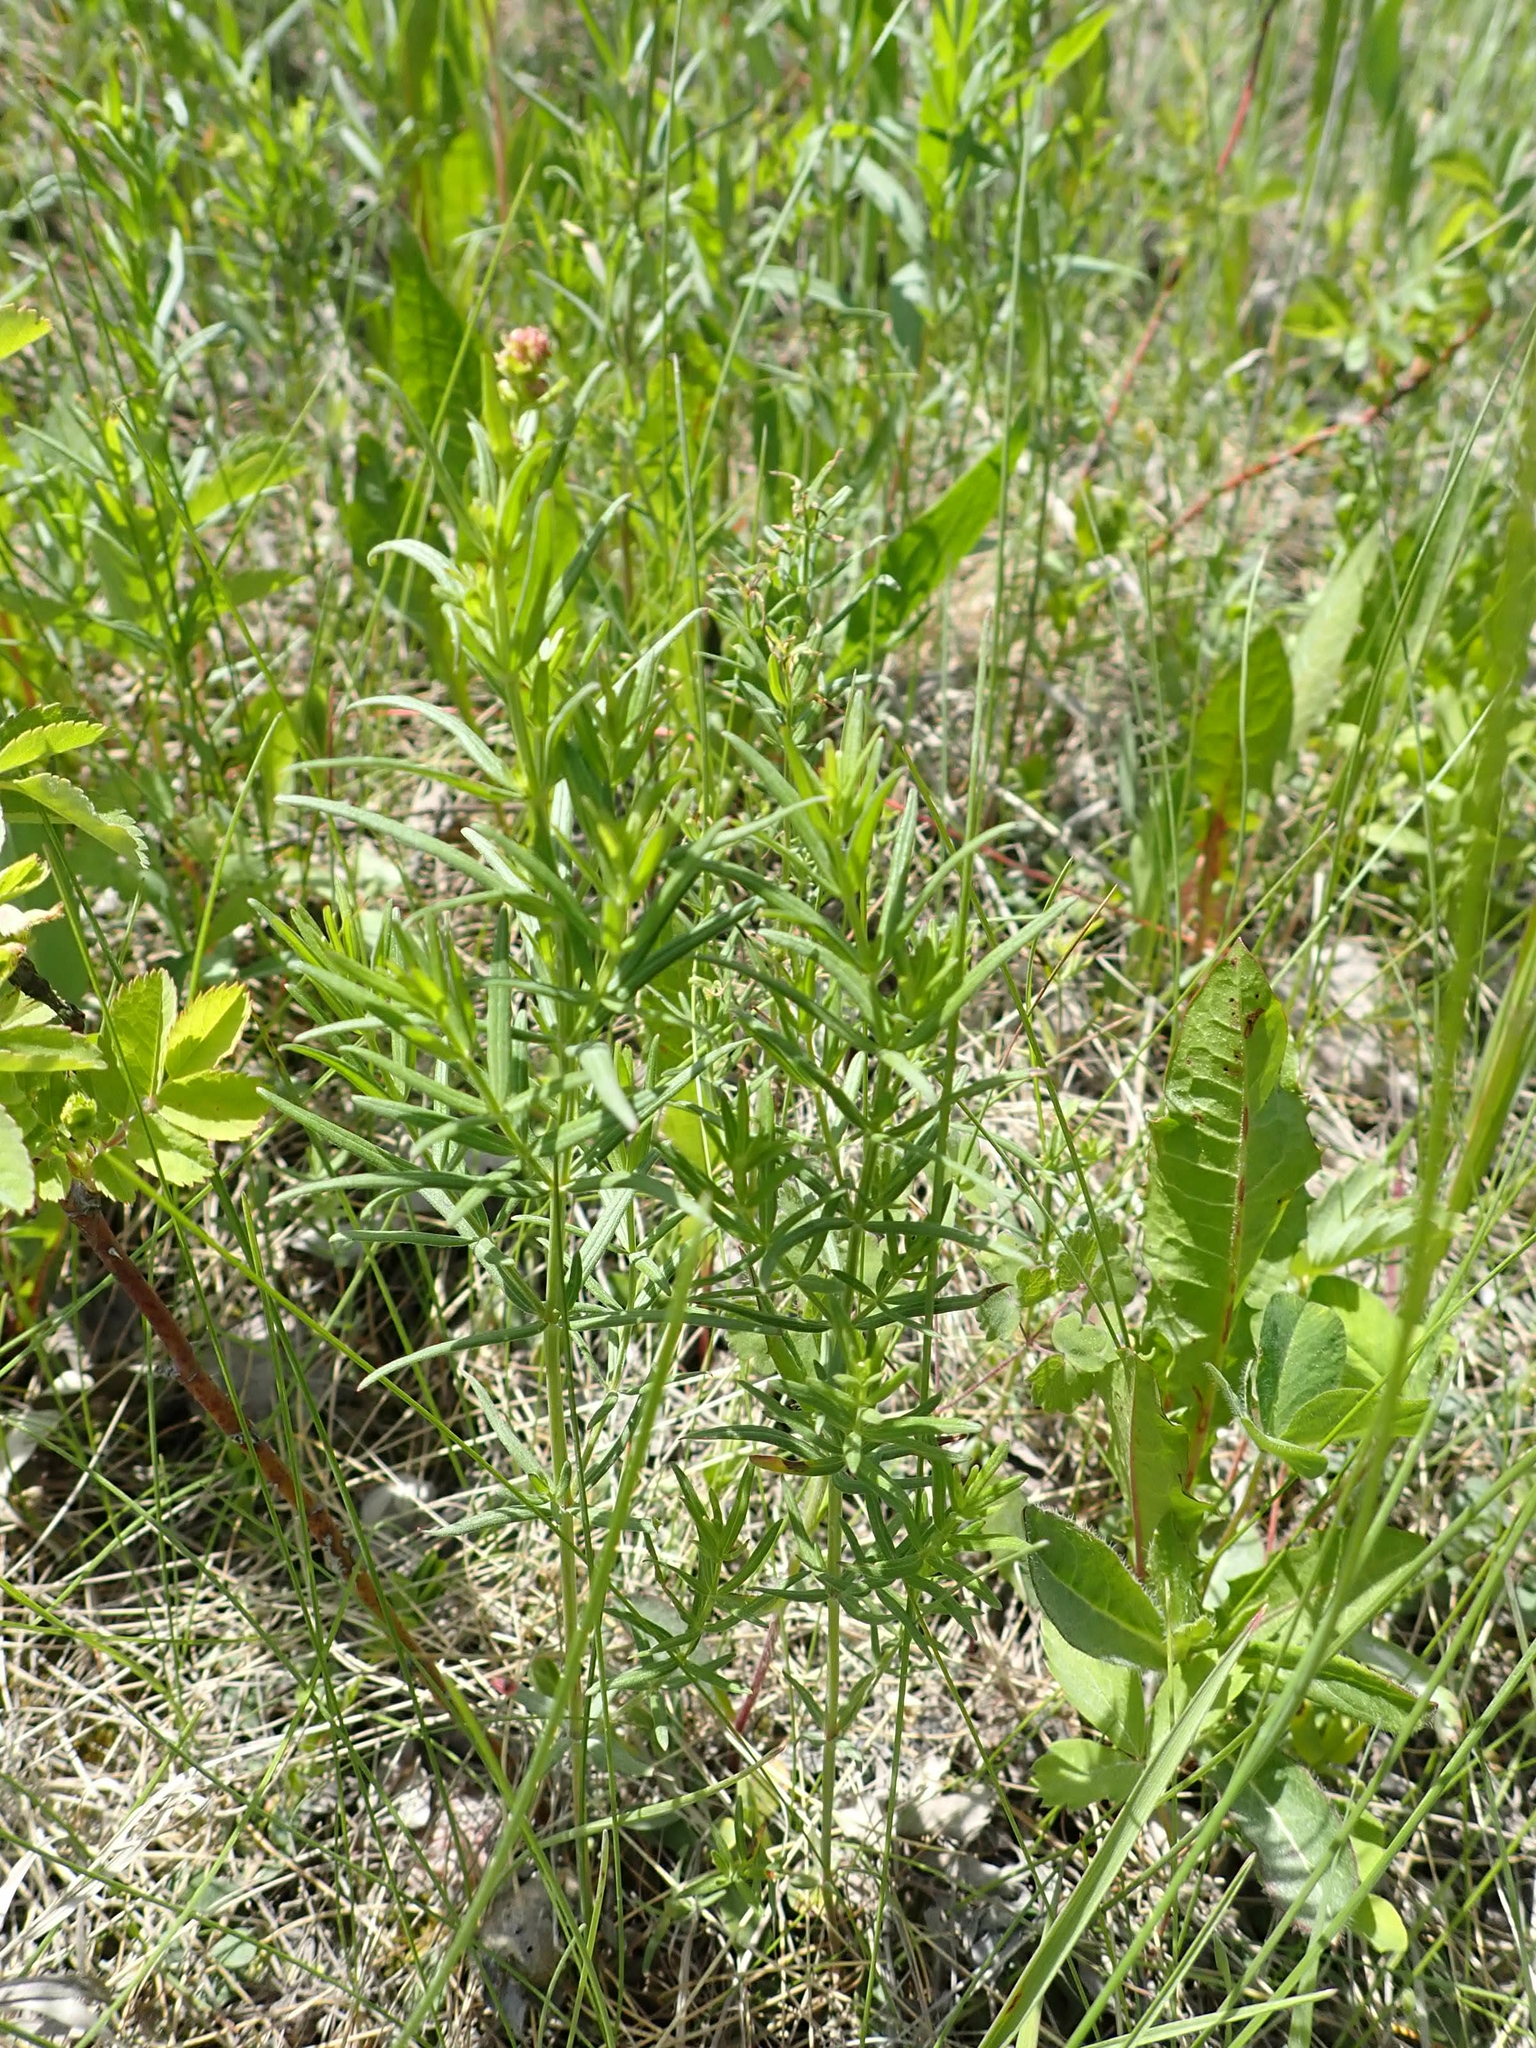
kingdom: Plantae
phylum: Tracheophyta
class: Magnoliopsida
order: Gentianales
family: Rubiaceae
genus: Galium
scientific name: Galium boreale
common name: Northern bedstraw
